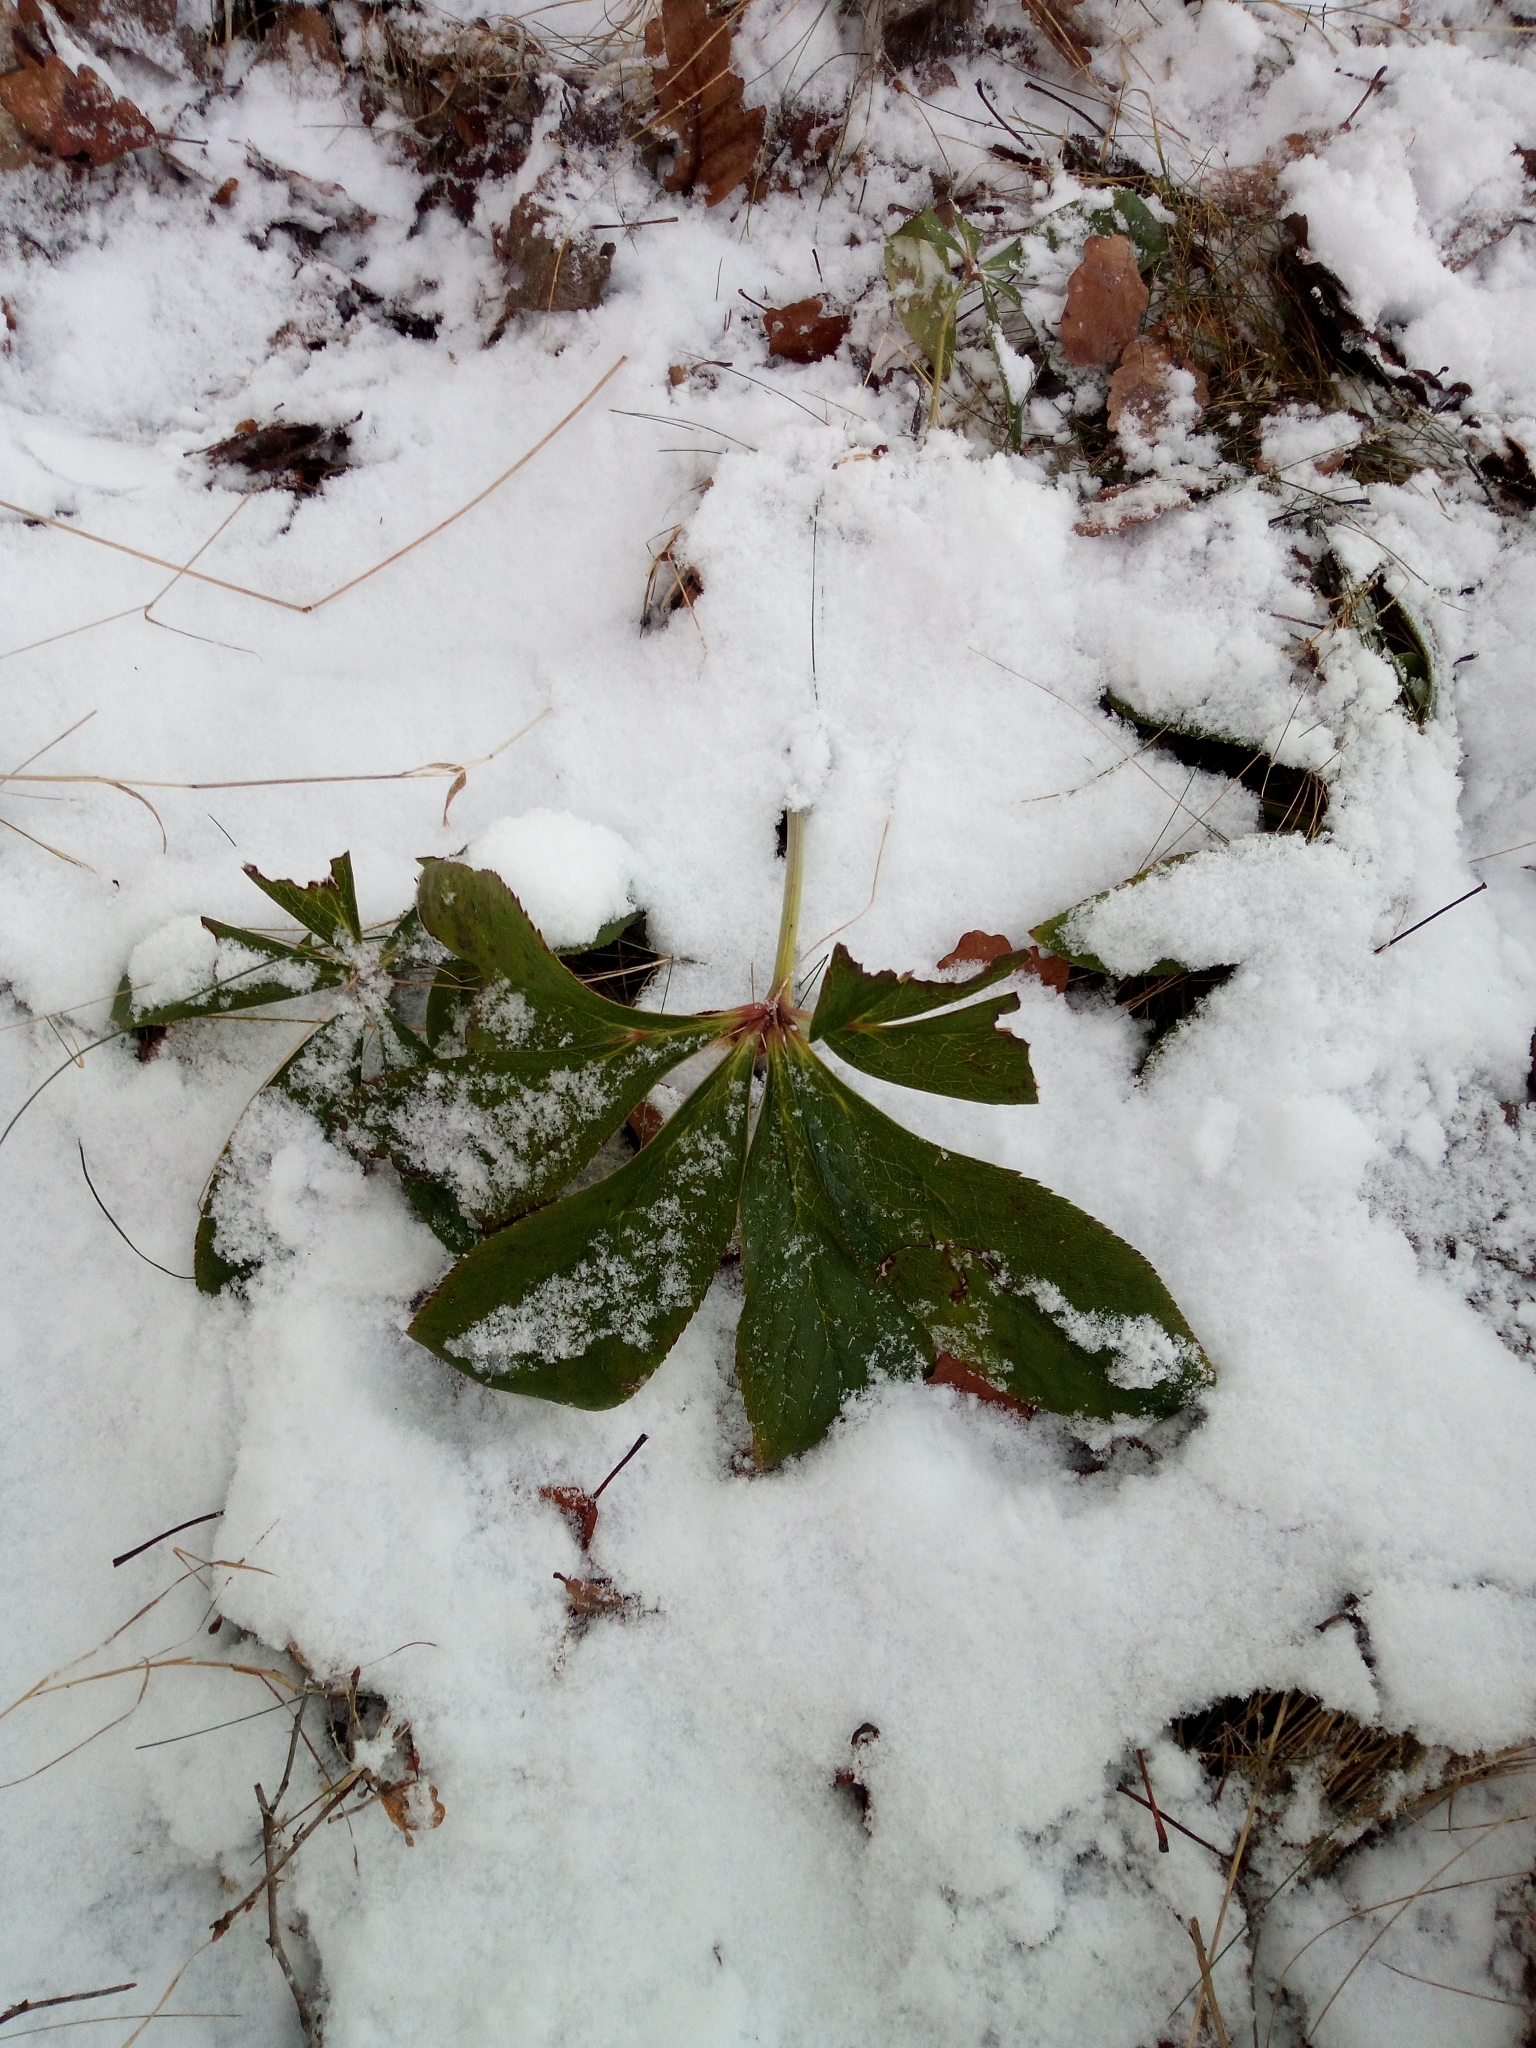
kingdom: Plantae
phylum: Tracheophyta
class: Magnoliopsida
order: Ranunculales
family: Ranunculaceae
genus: Helleborus
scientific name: Helleborus orientalis
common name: Lenten-rose
